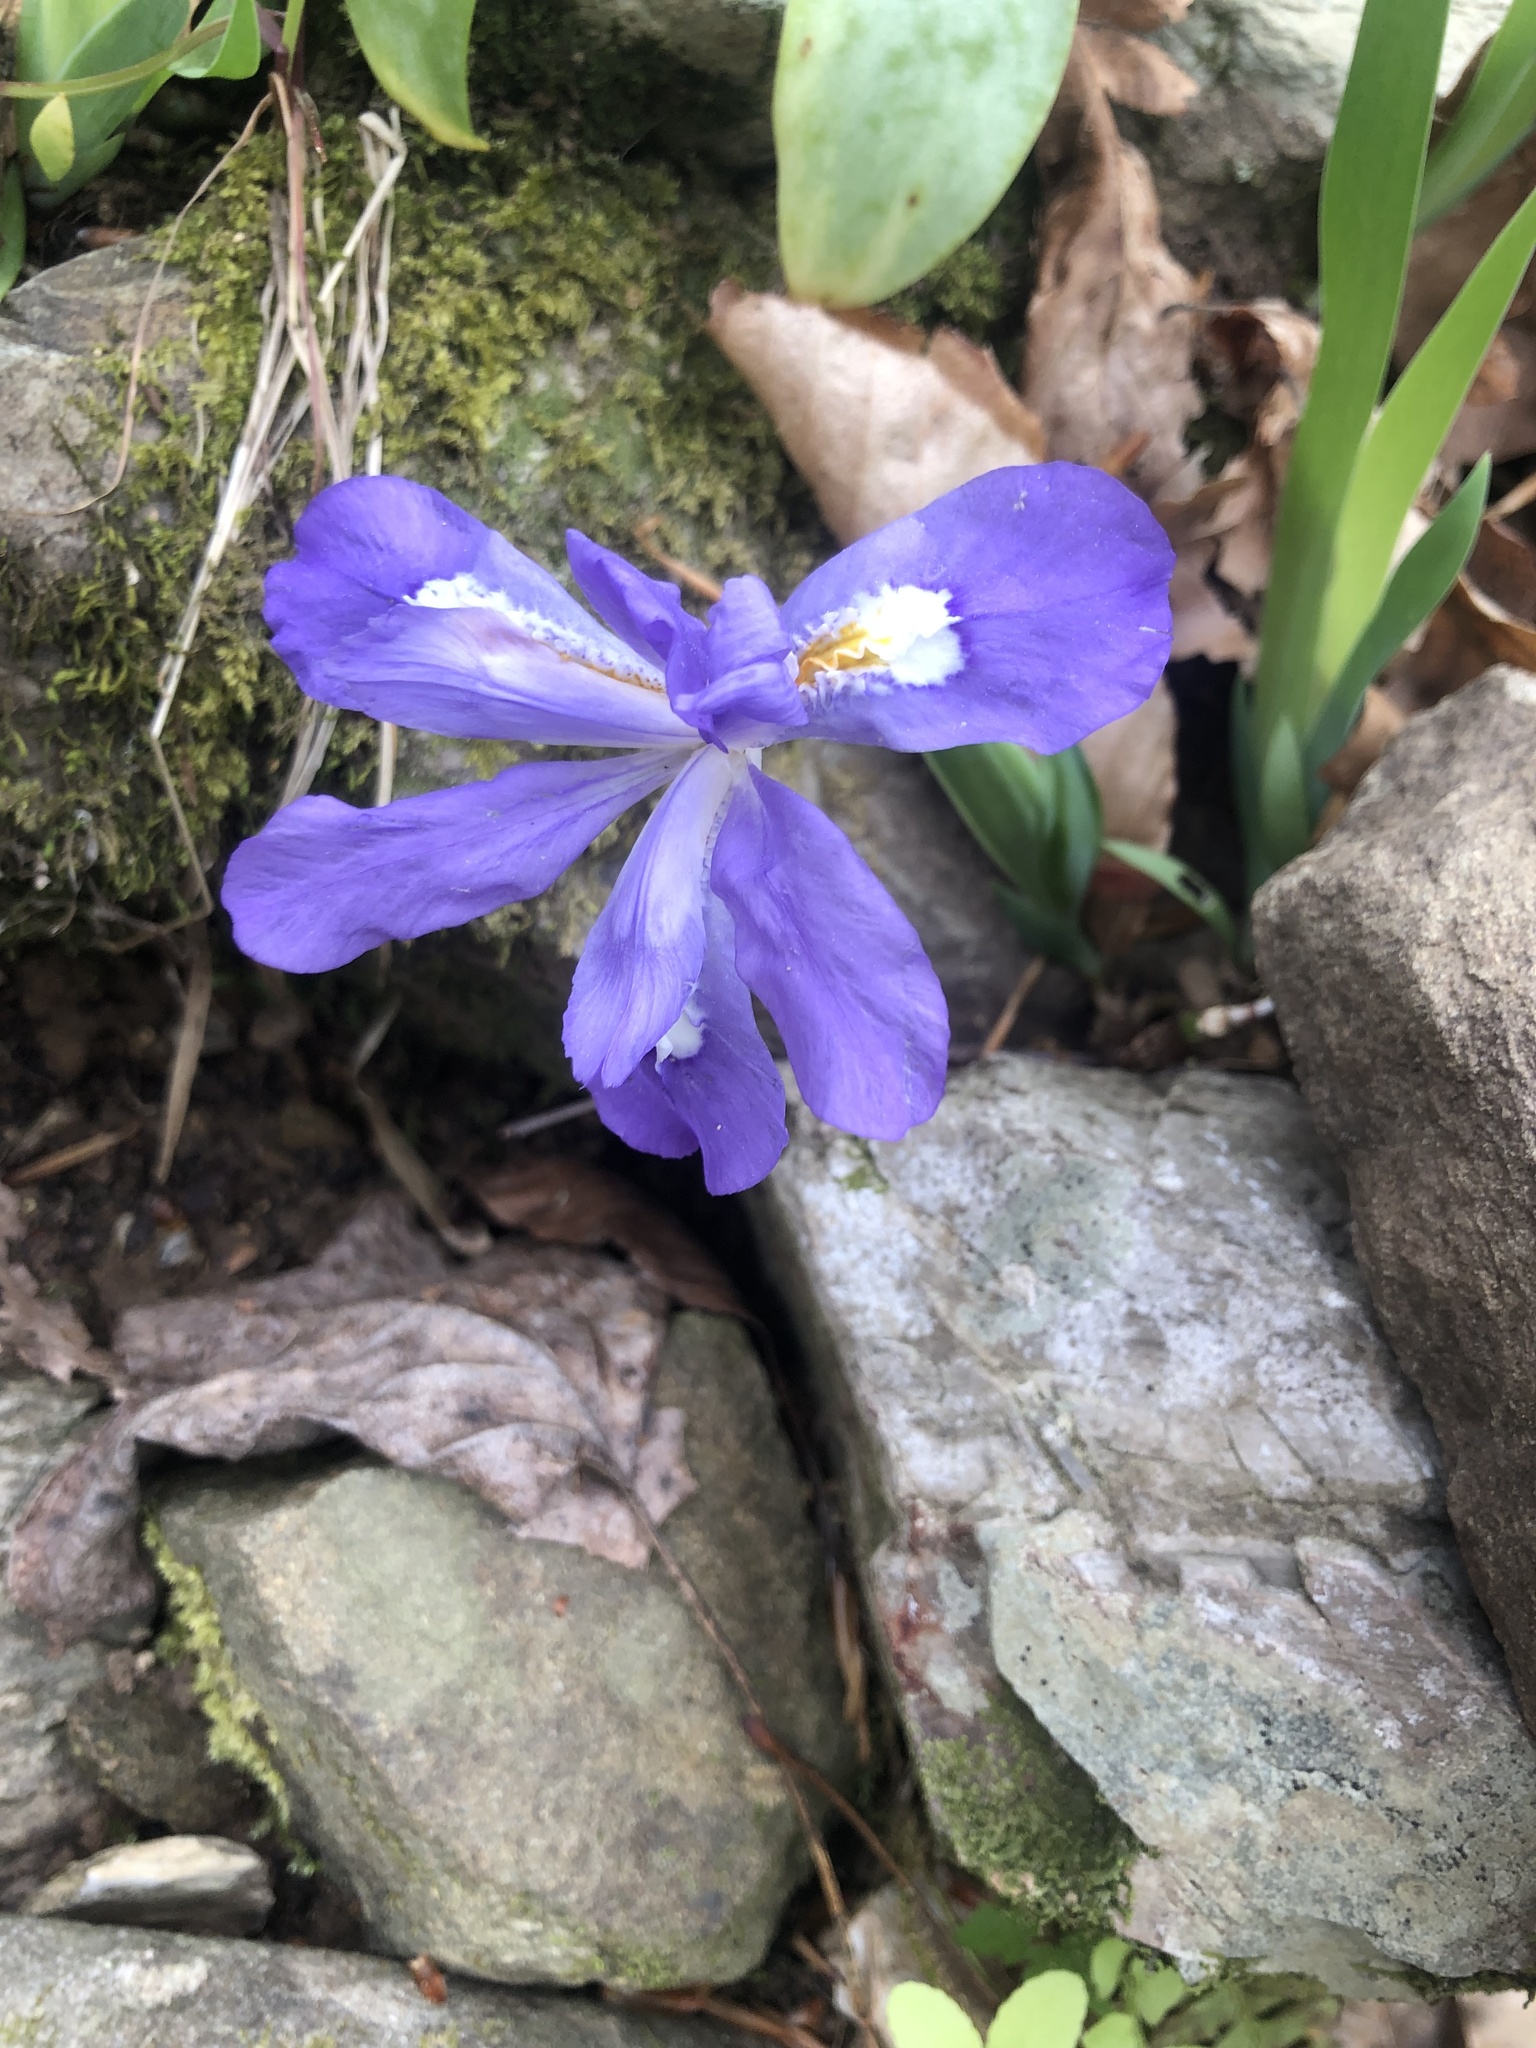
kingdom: Plantae
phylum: Tracheophyta
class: Liliopsida
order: Asparagales
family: Iridaceae
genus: Iris
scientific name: Iris cristata
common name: Crested iris
